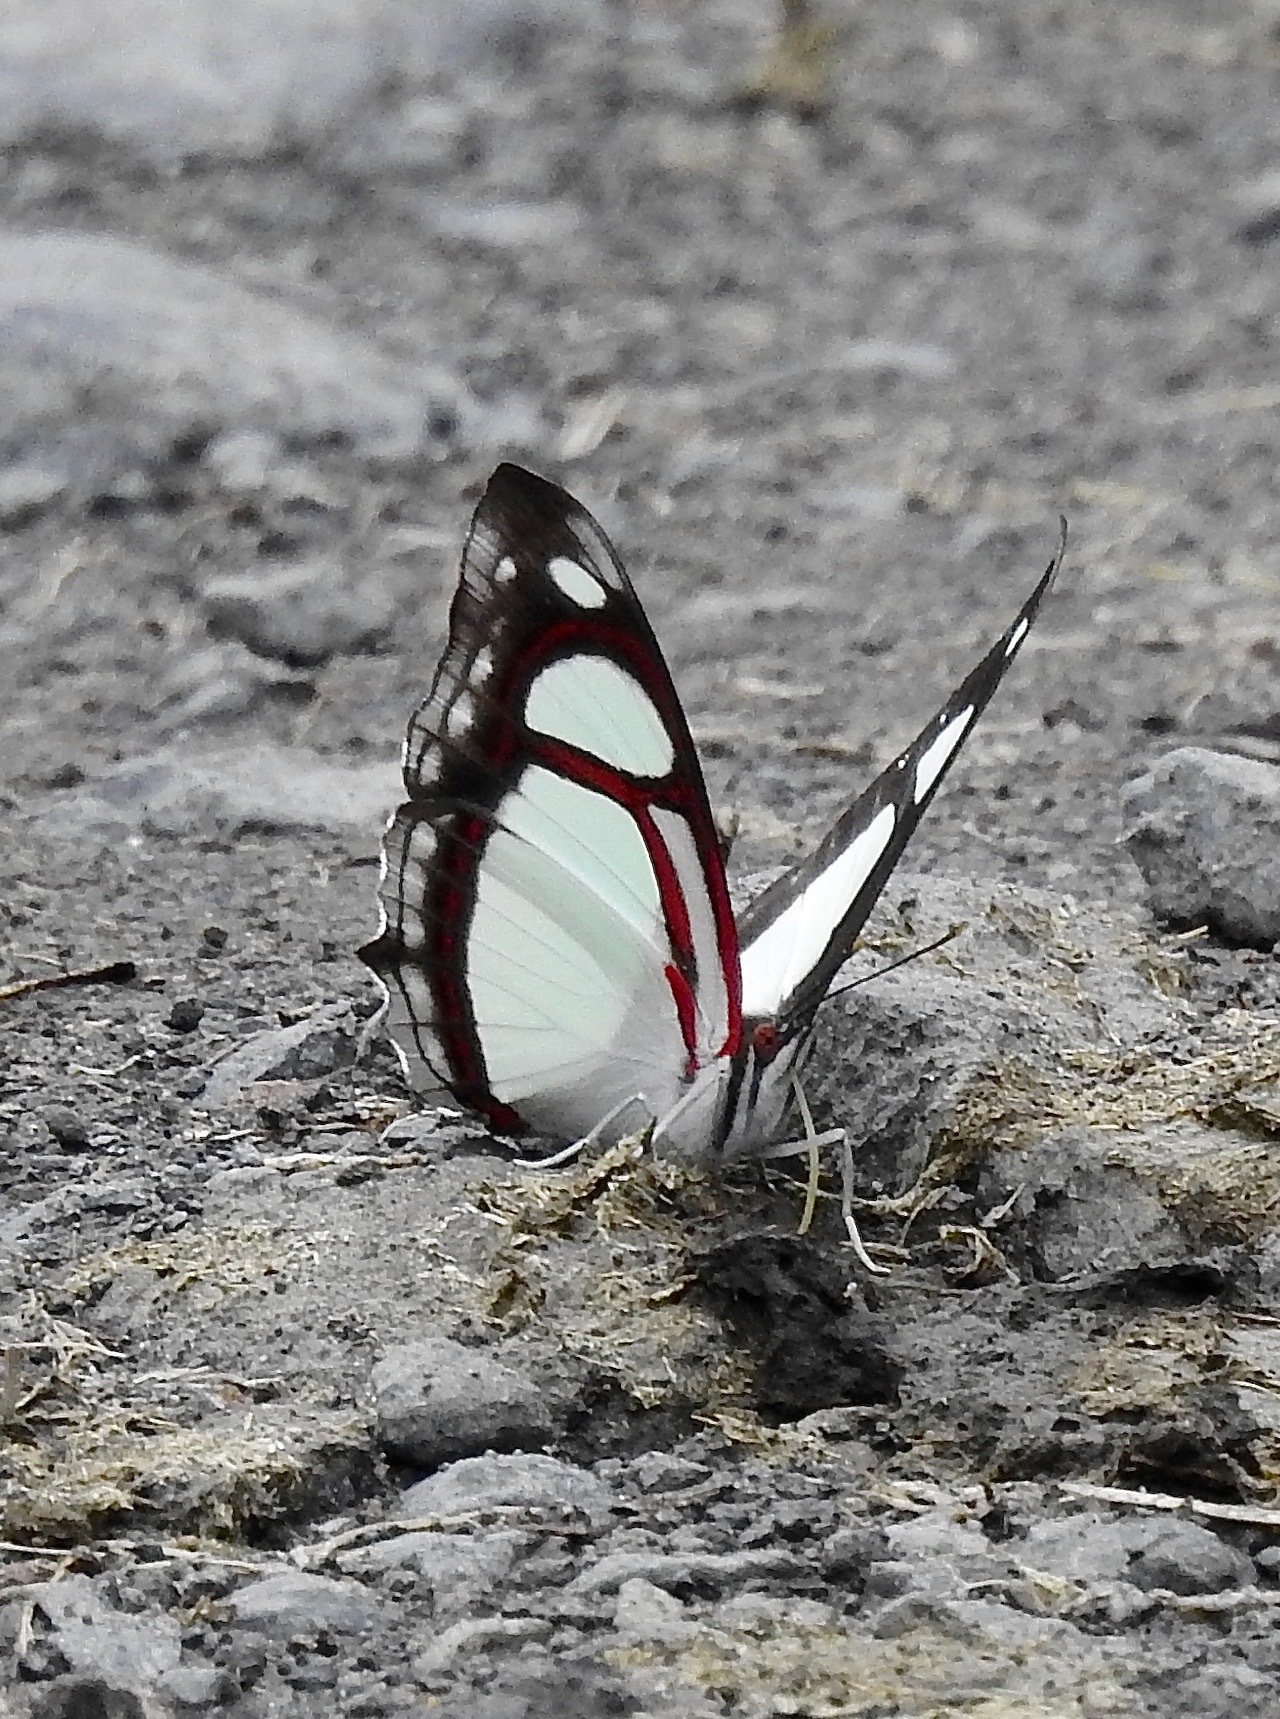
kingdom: Animalia
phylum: Arthropoda
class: Insecta
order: Lepidoptera
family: Nymphalidae
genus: Pyrrhogyra
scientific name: Pyrrhogyra edocla
